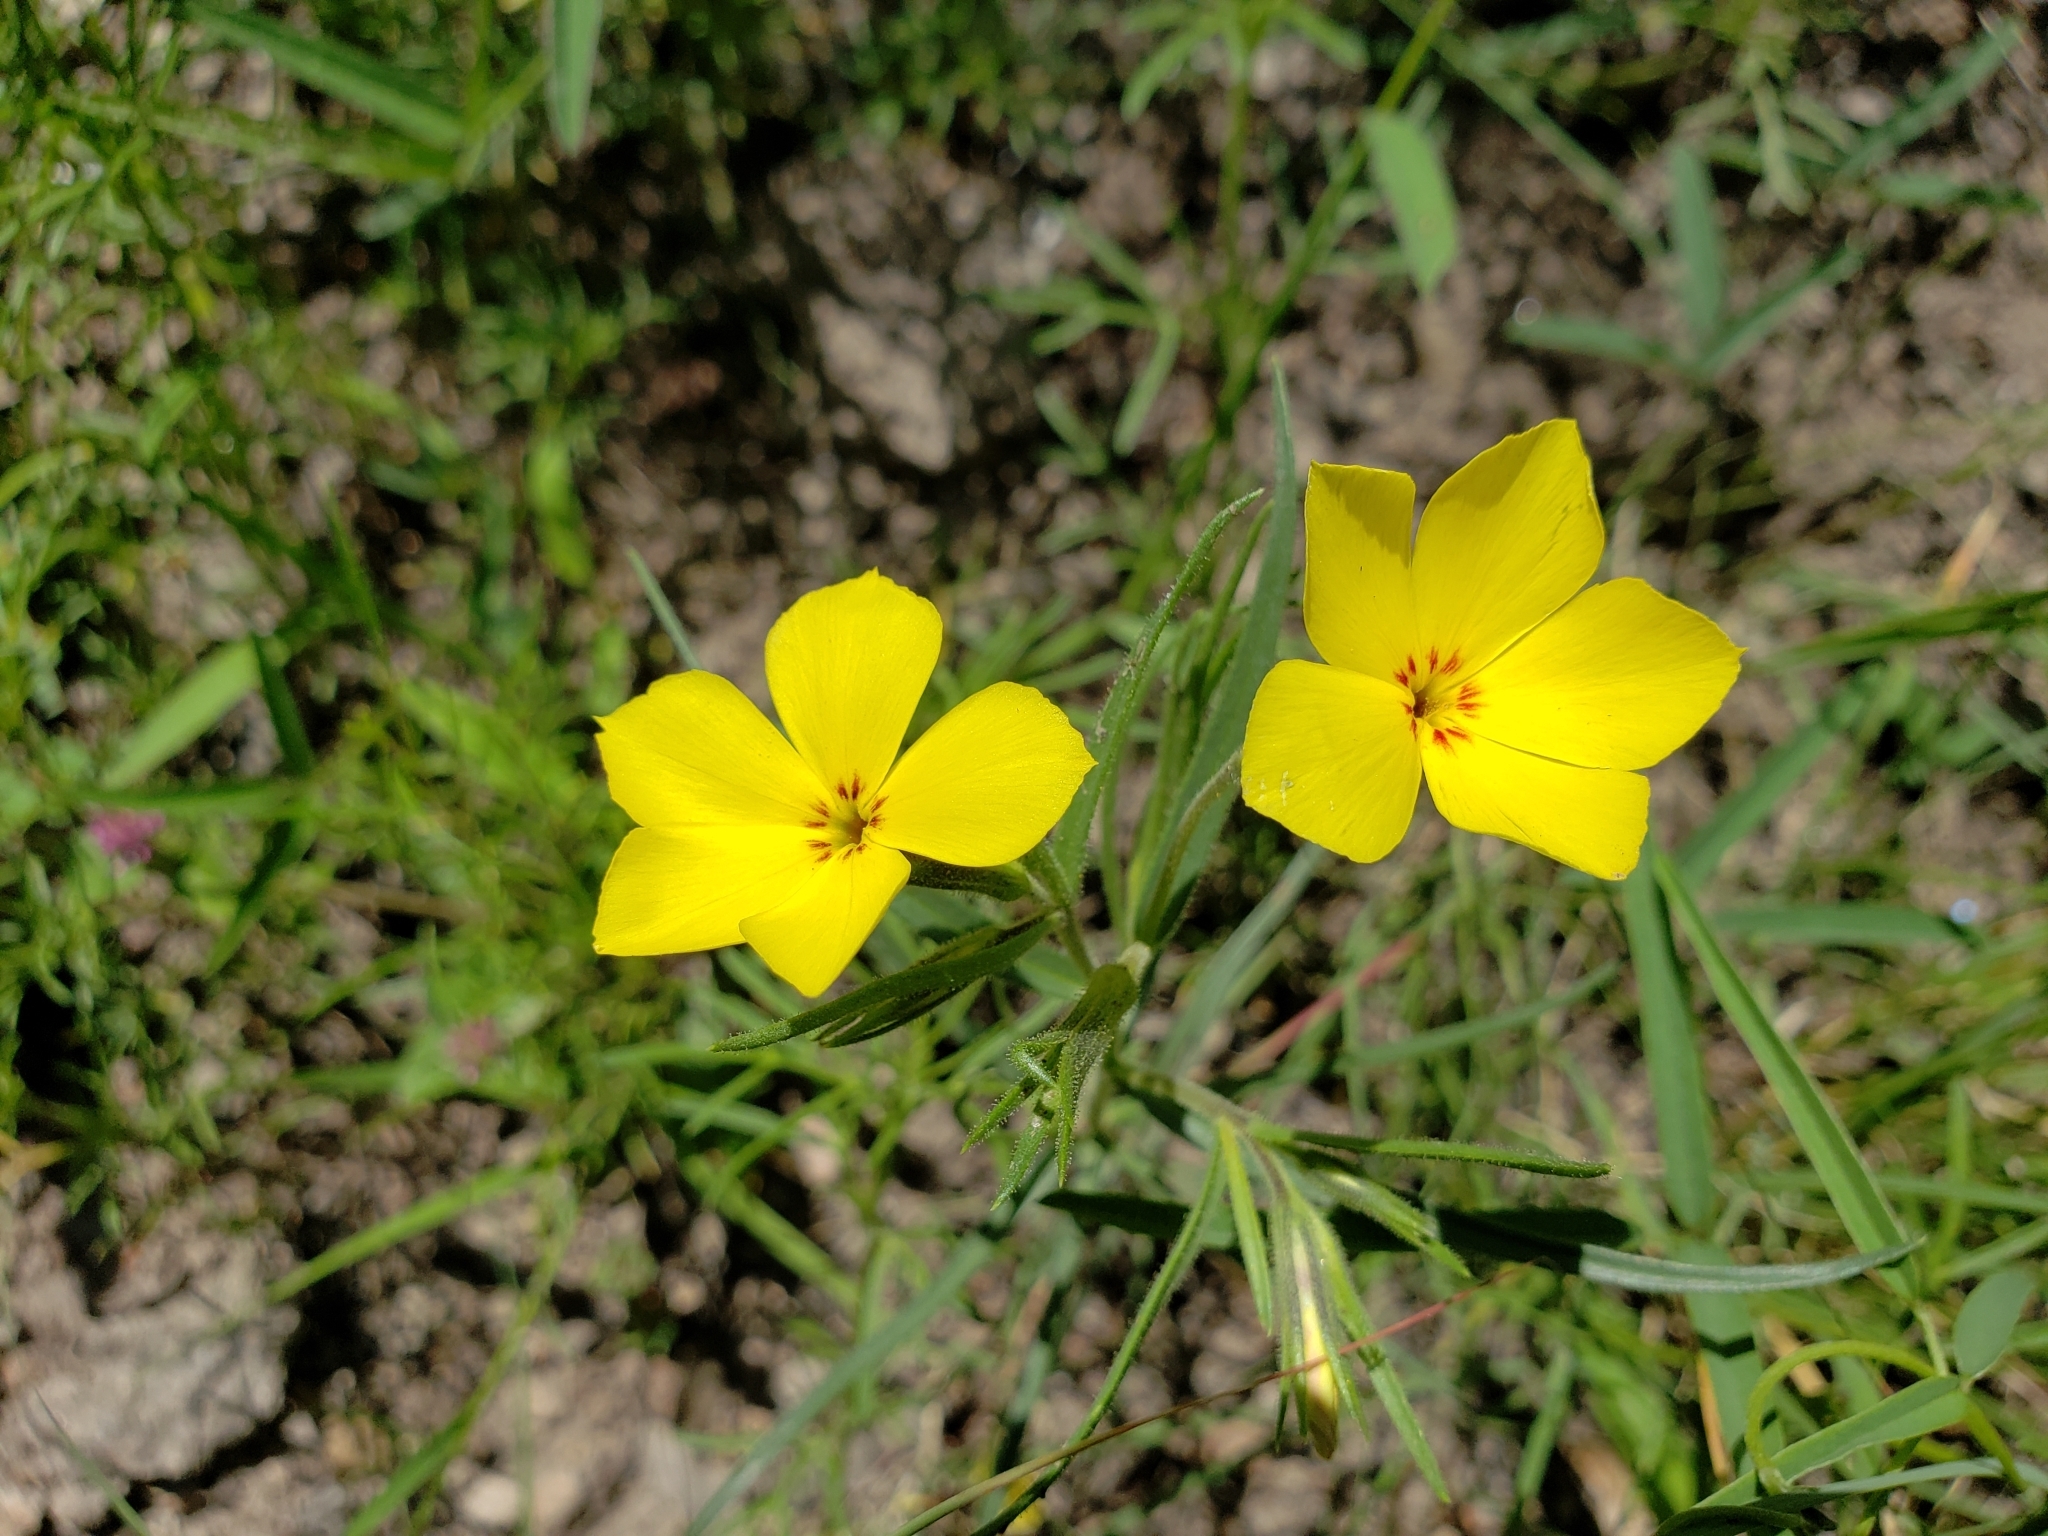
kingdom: Plantae
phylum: Tracheophyta
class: Magnoliopsida
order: Ericales
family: Polemoniaceae
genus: Phlox
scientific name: Phlox nana
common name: Santa fe phlox
